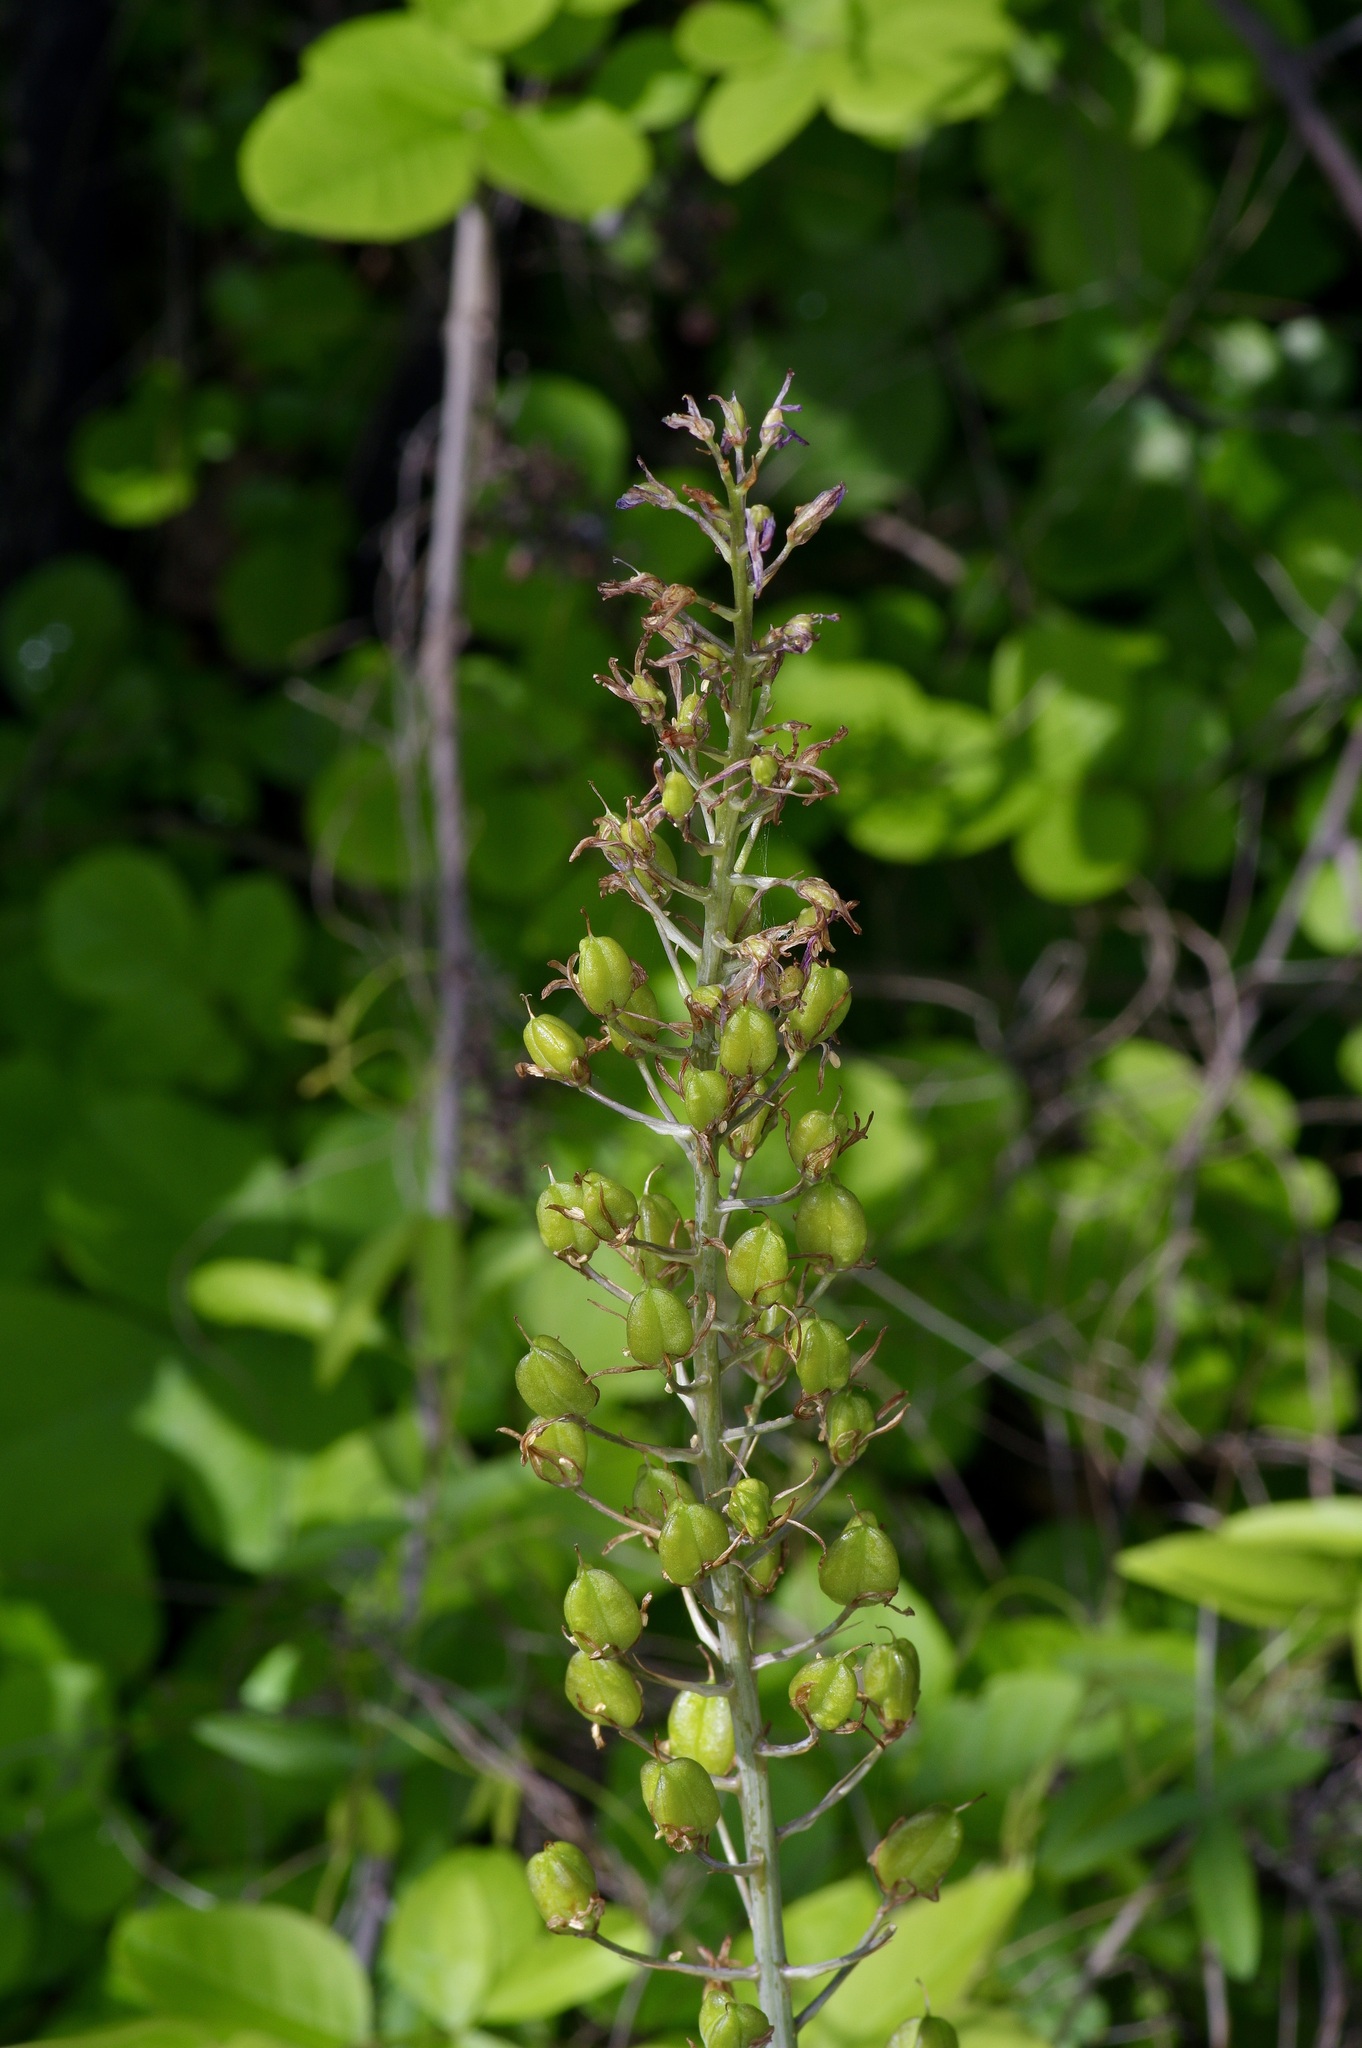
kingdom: Plantae
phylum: Tracheophyta
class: Liliopsida
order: Asparagales
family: Asparagaceae
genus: Camassia
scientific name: Camassia scilloides
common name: Wild hyacinth
